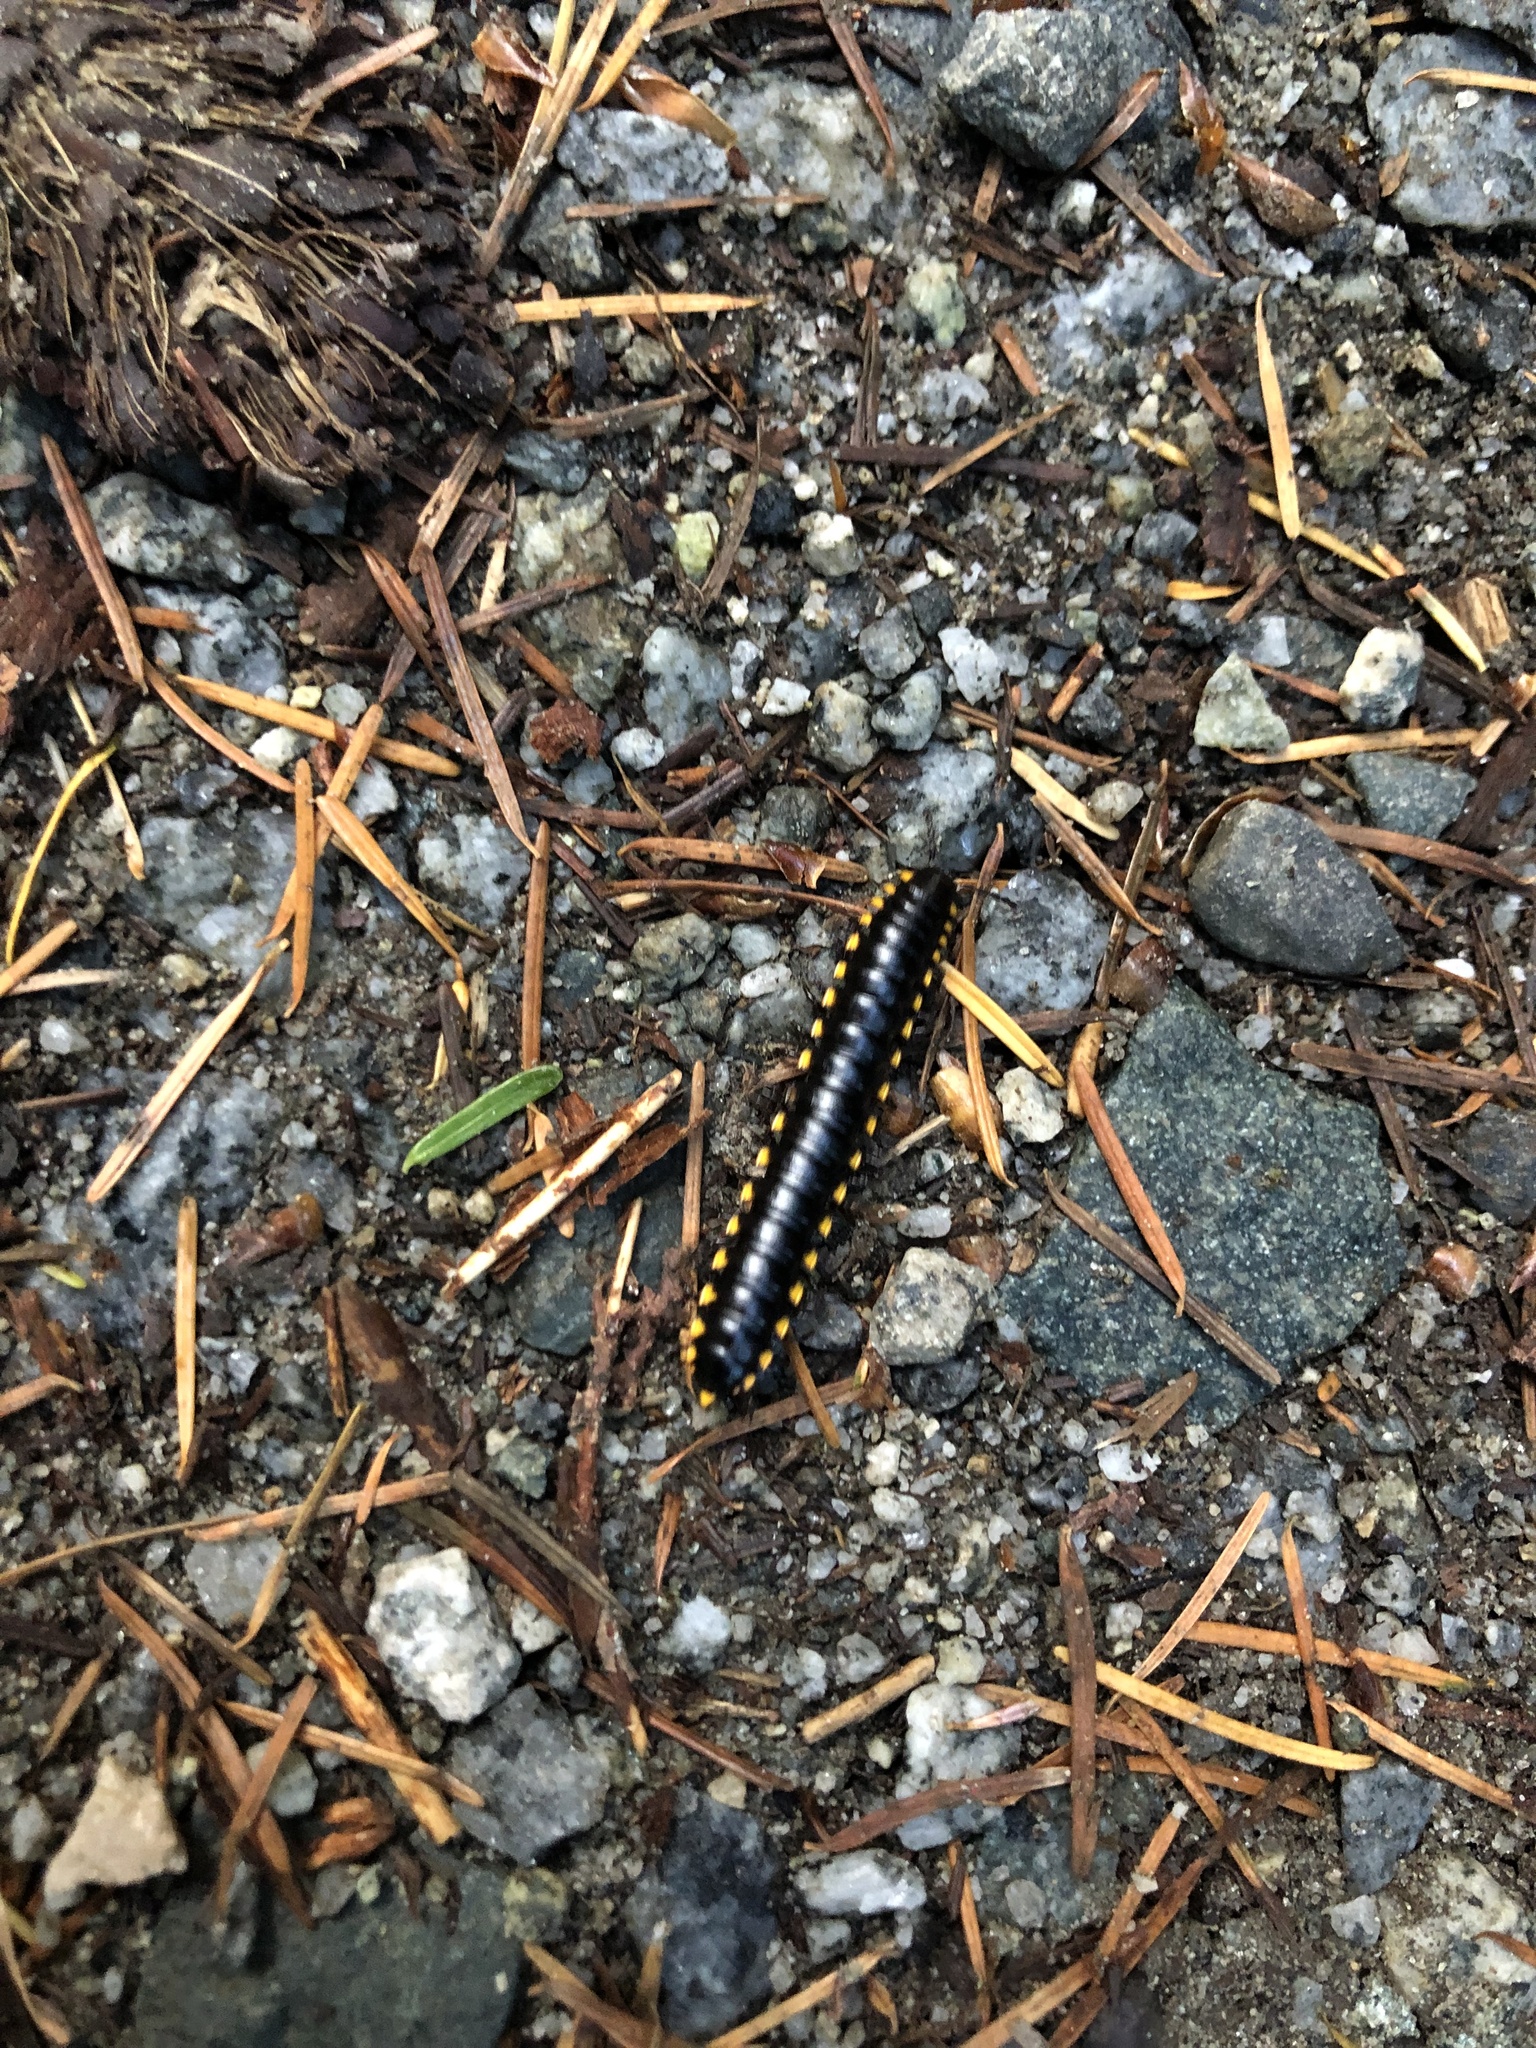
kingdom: Animalia
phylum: Arthropoda
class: Diplopoda
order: Polydesmida
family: Xystodesmidae
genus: Harpaphe
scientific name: Harpaphe haydeniana
